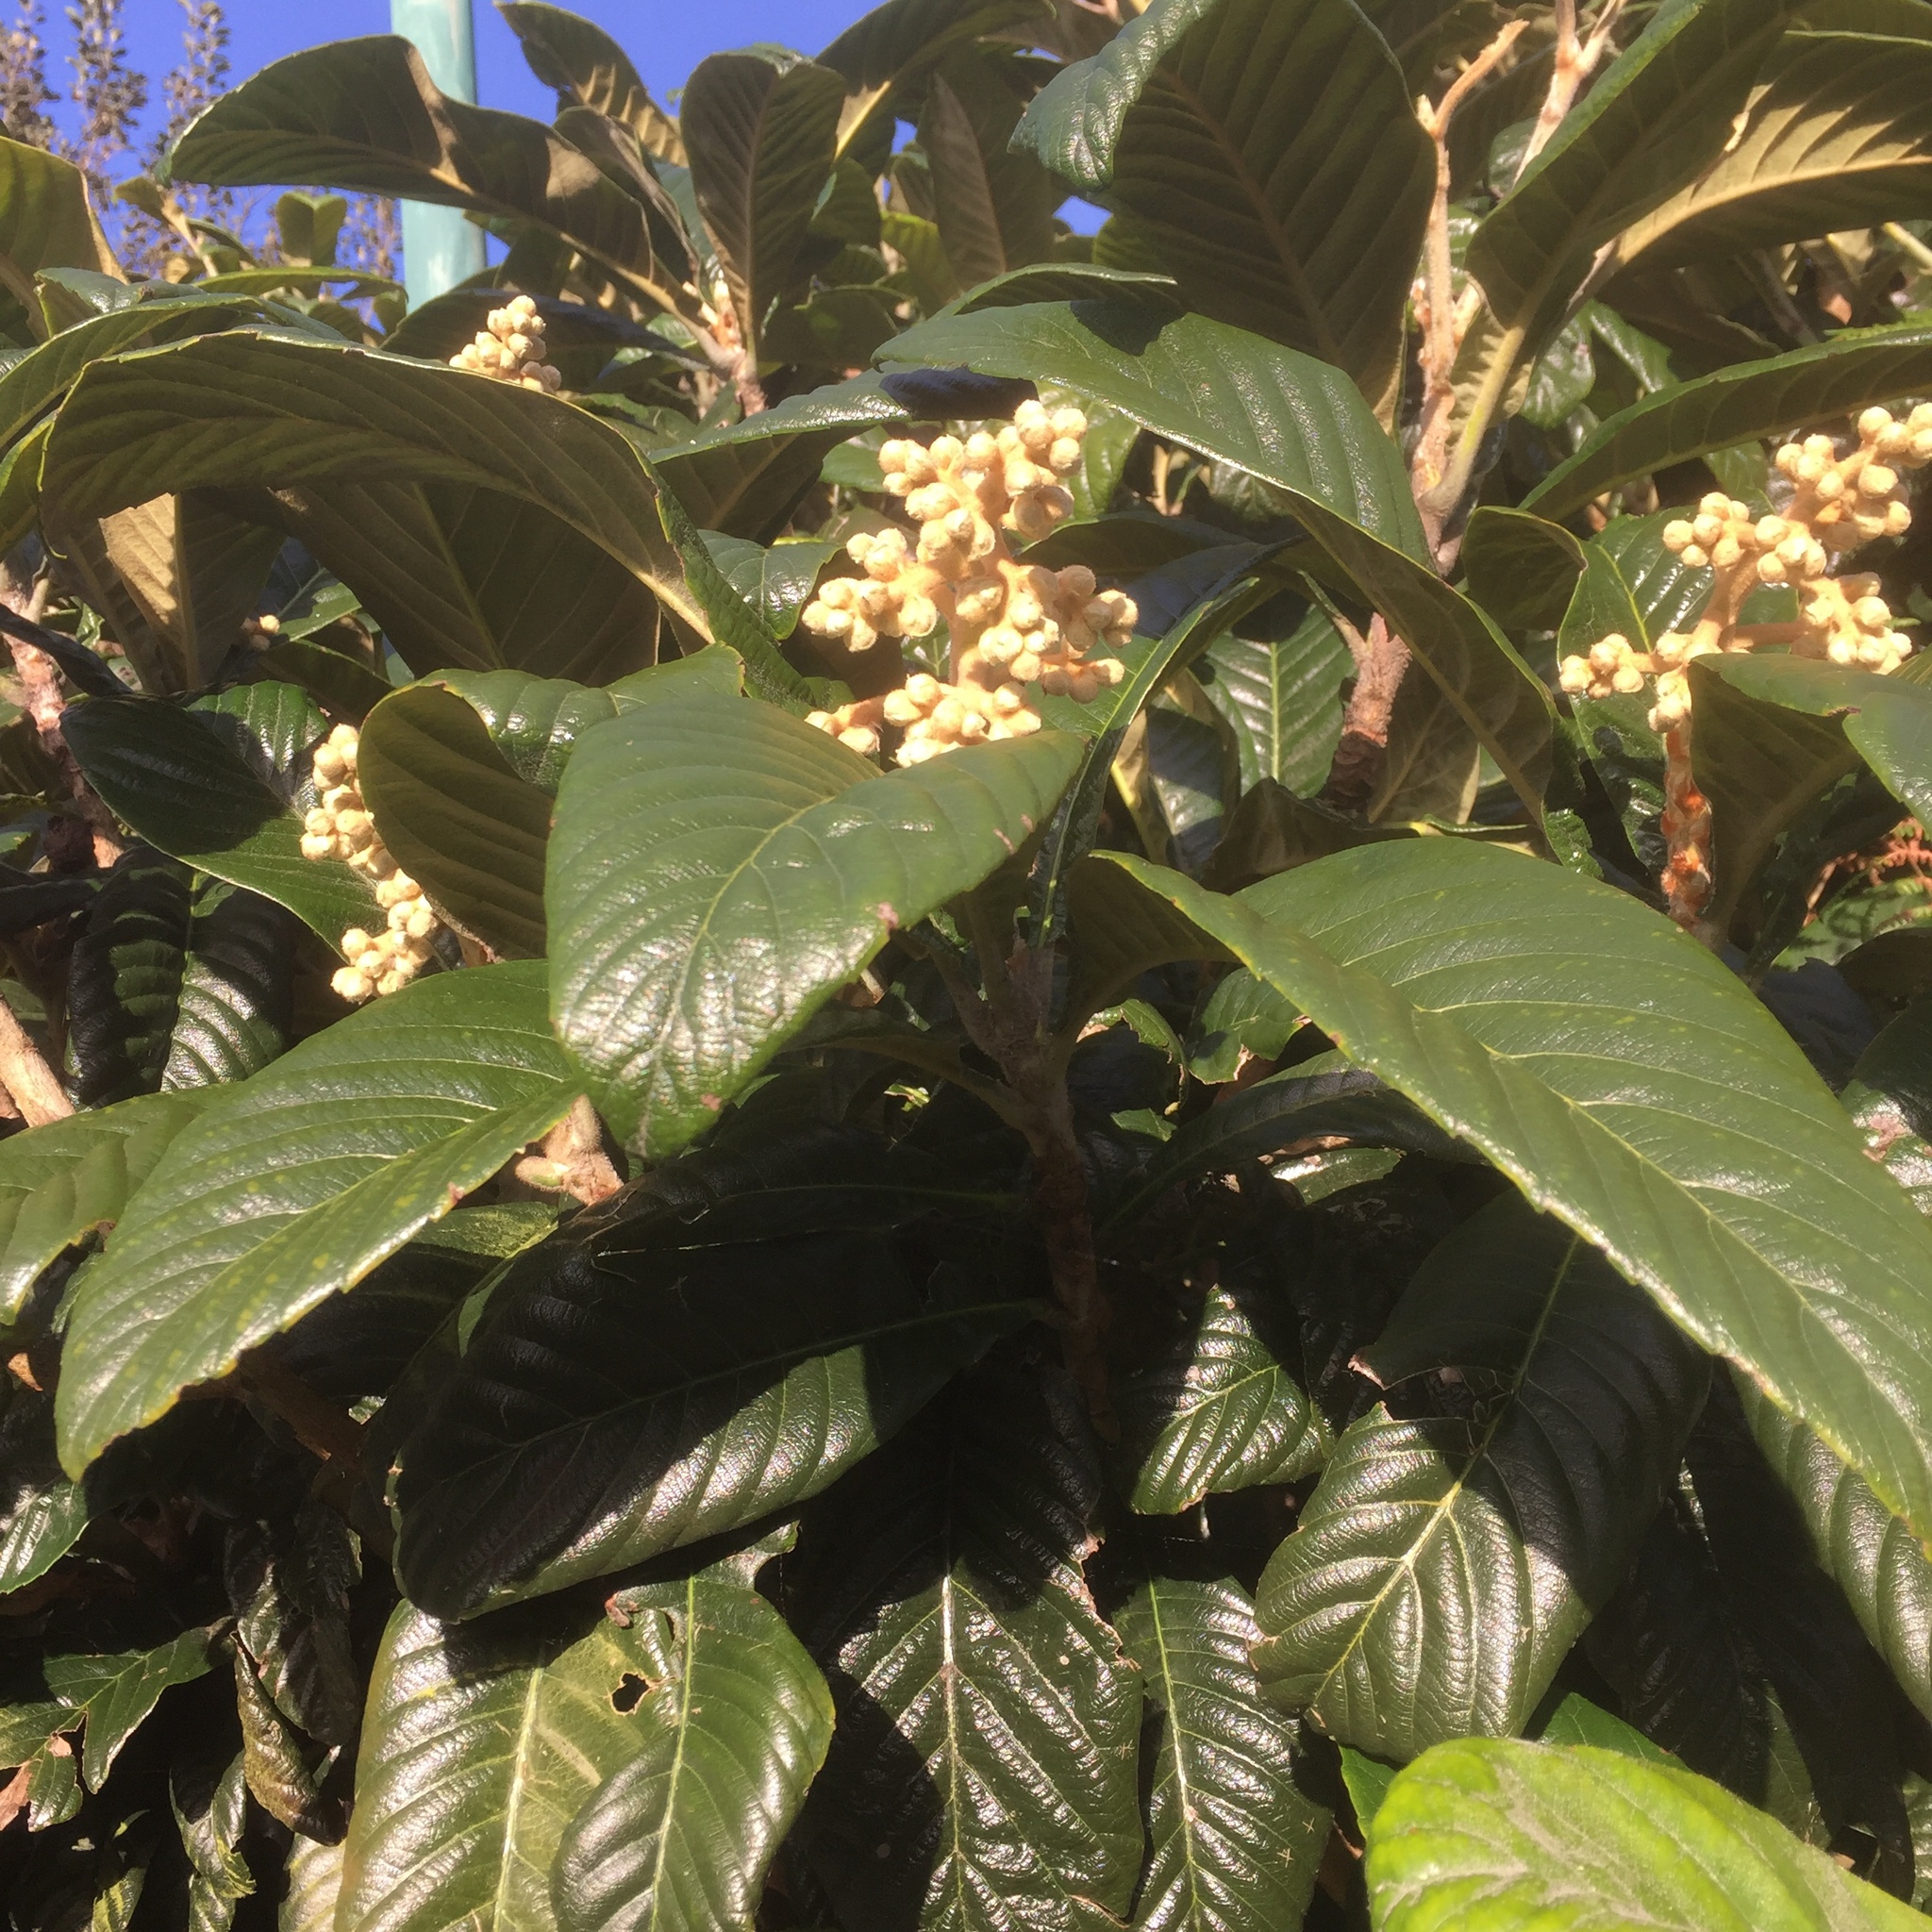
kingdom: Plantae
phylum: Tracheophyta
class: Magnoliopsida
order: Rosales
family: Rosaceae
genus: Rhaphiolepis
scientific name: Rhaphiolepis bibas
